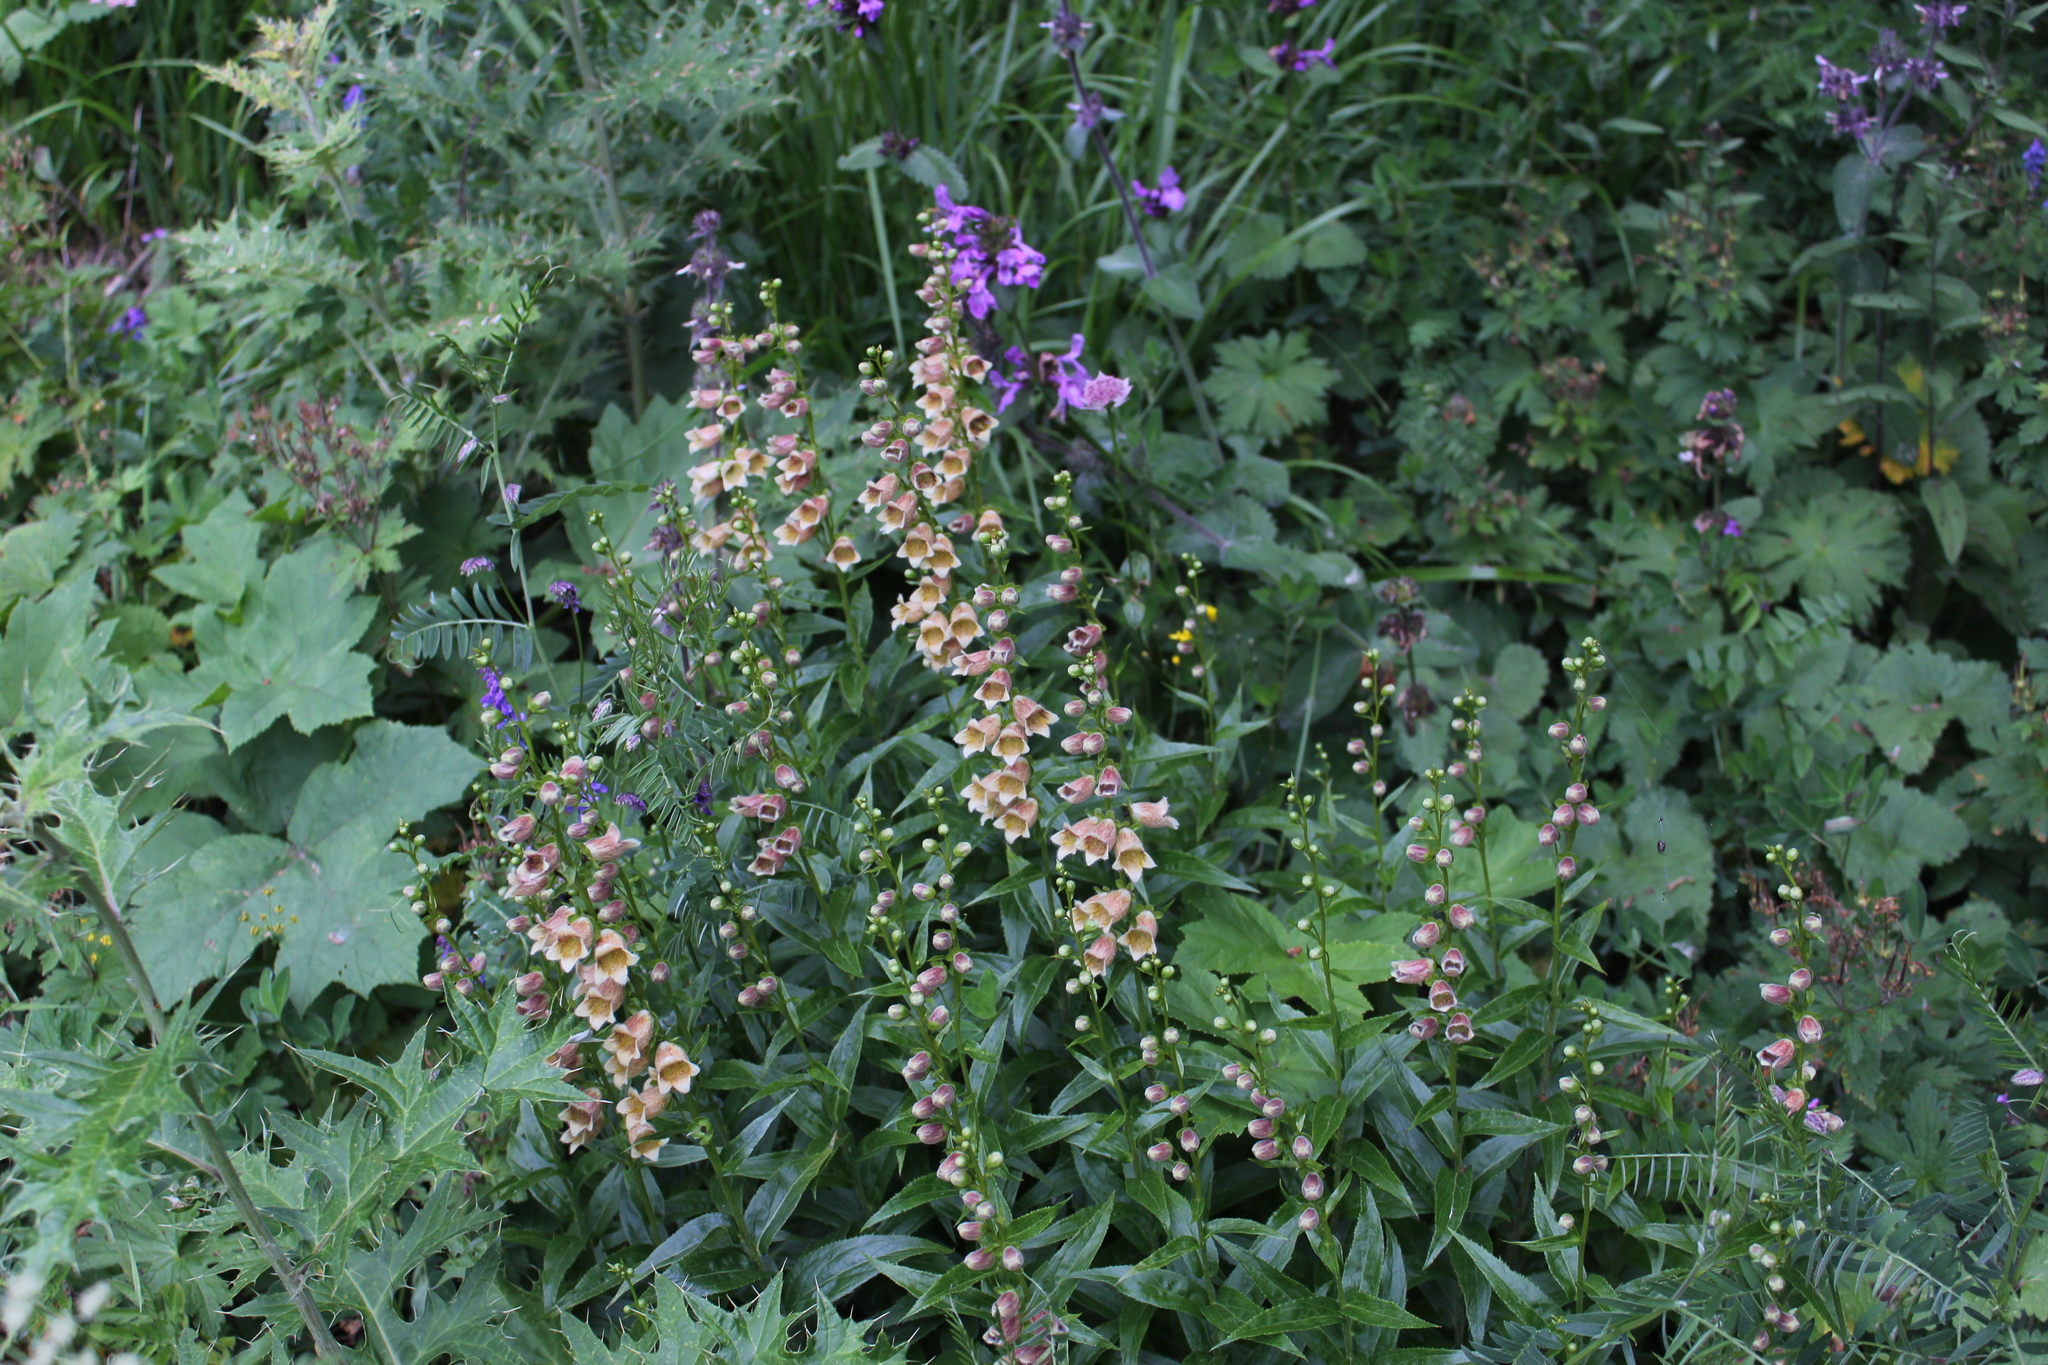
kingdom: Plantae
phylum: Tracheophyta
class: Magnoliopsida
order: Lamiales
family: Plantaginaceae
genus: Digitalis
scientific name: Digitalis ciliata
